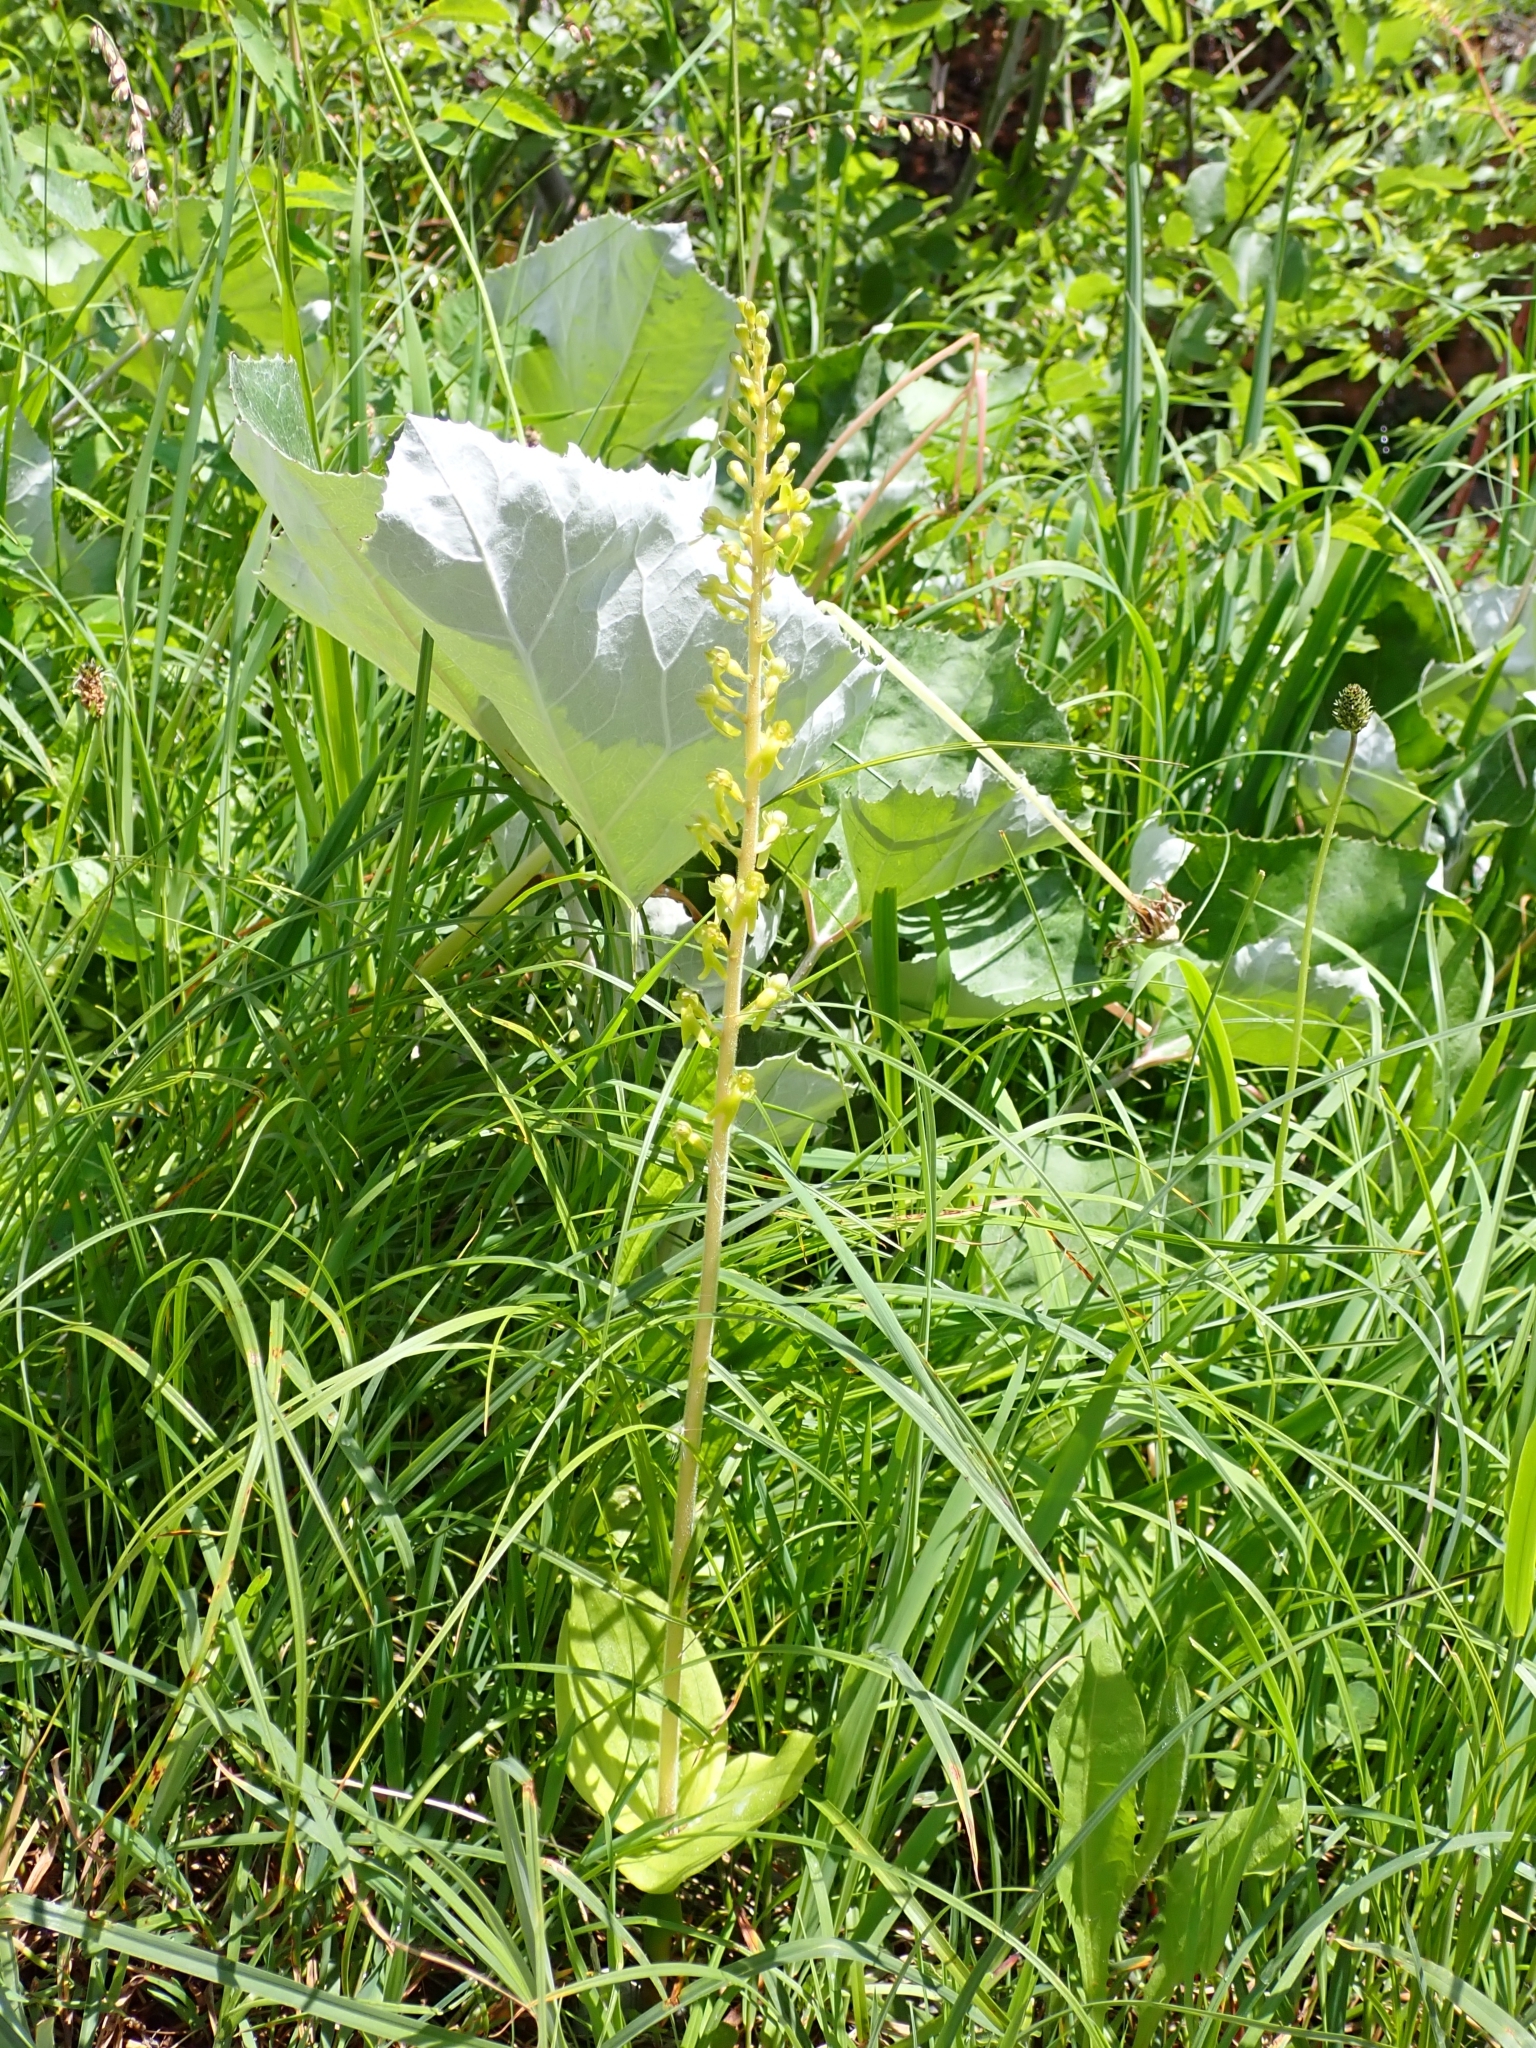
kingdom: Plantae
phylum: Tracheophyta
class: Liliopsida
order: Asparagales
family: Orchidaceae
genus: Neottia
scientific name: Neottia ovata
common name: Common twayblade
